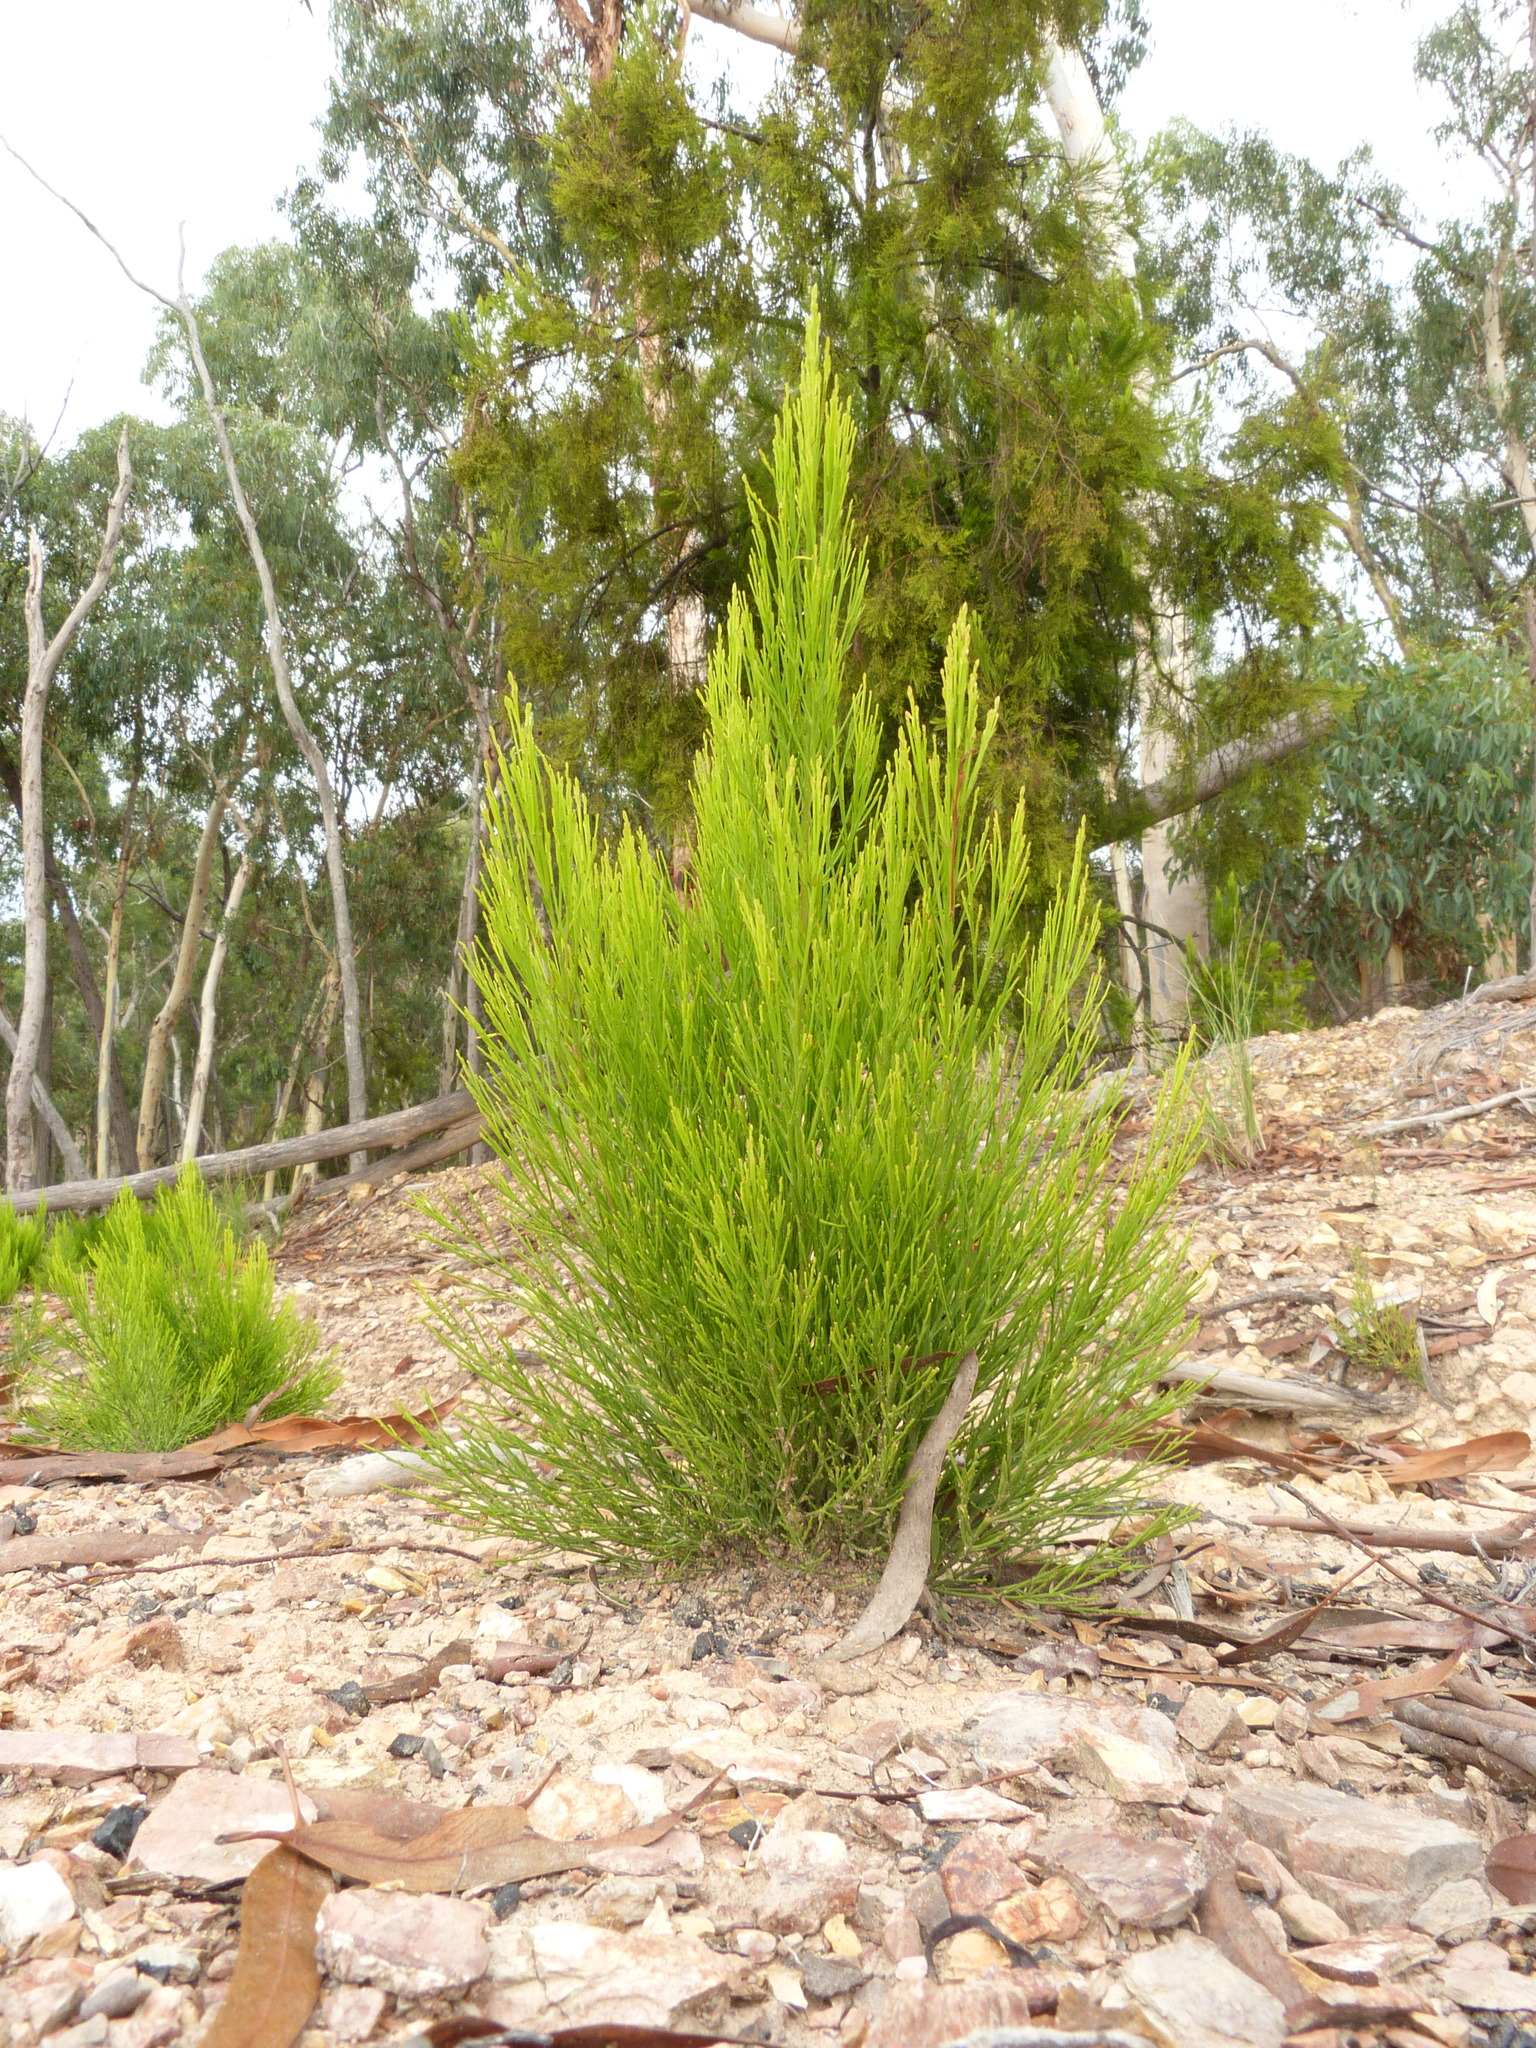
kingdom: Plantae
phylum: Tracheophyta
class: Magnoliopsida
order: Santalales
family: Santalaceae
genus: Exocarpos
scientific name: Exocarpos cupressiformis
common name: Cherry ballart
